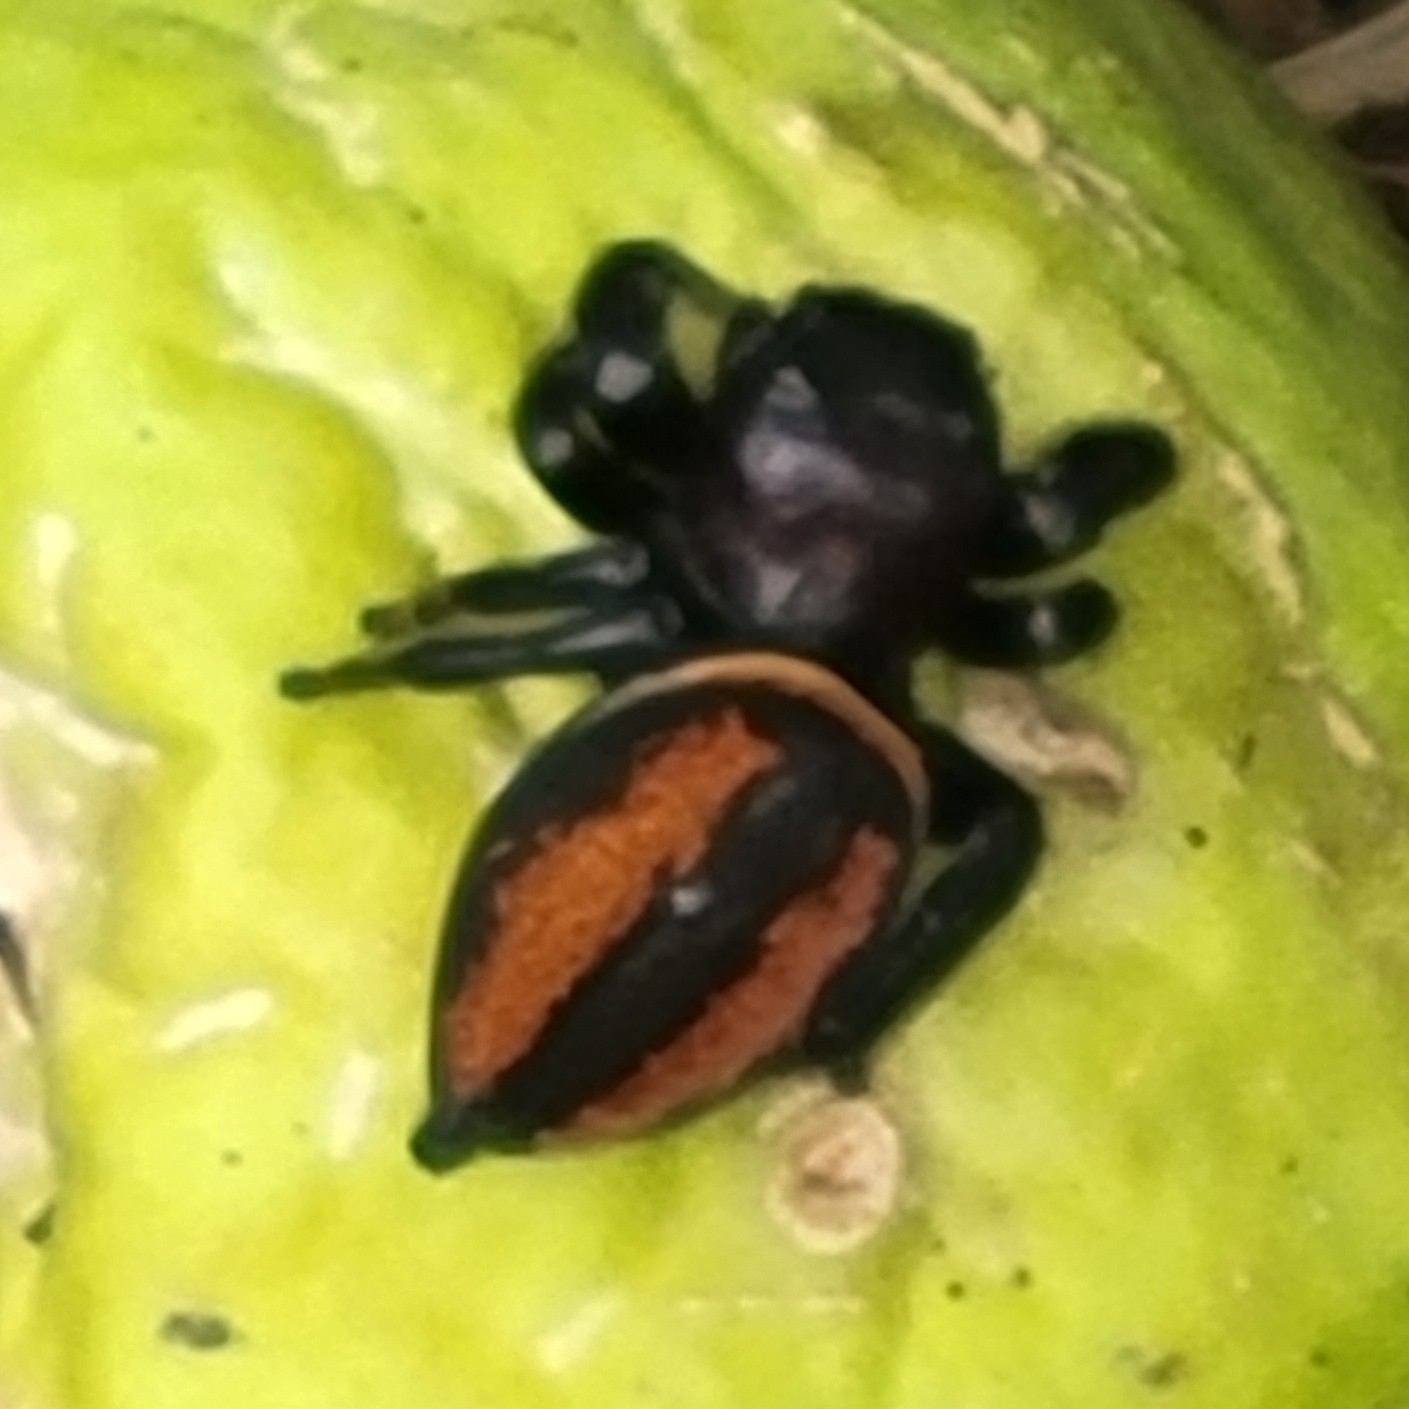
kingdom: Animalia
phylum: Arthropoda
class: Arachnida
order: Araneae
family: Salticidae
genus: Phidippus
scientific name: Phidippus clarus
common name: Brilliant jumping spider
